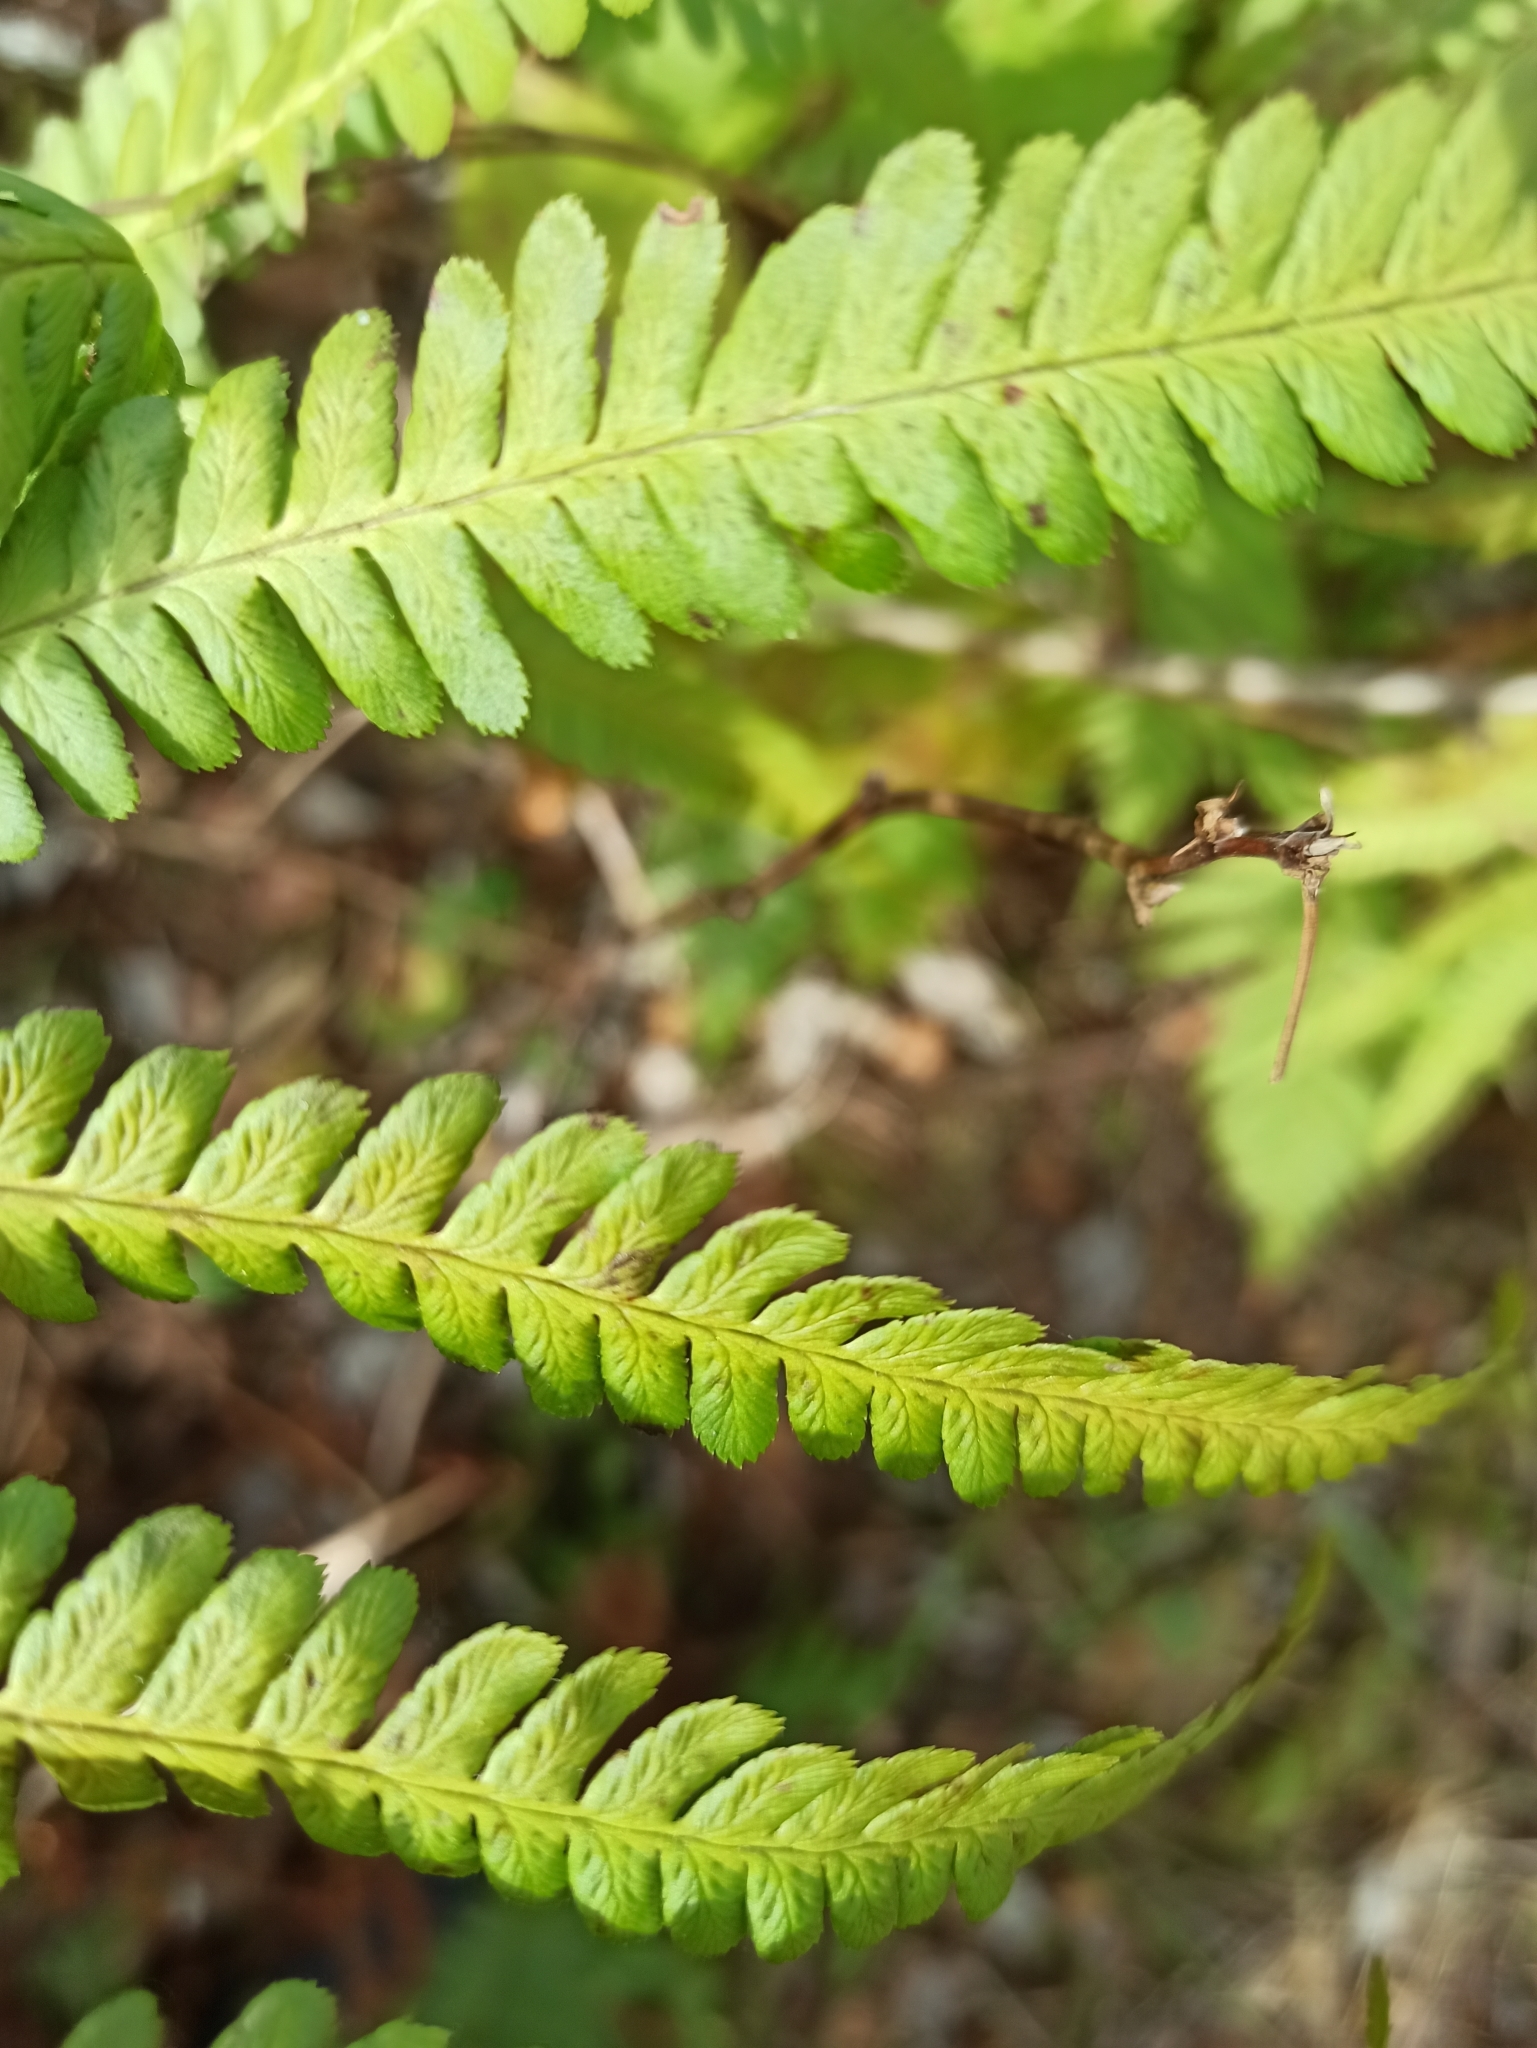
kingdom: Plantae
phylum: Tracheophyta
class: Polypodiopsida
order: Polypodiales
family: Dryopteridaceae
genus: Dryopteris
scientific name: Dryopteris filix-mas
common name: Male fern
